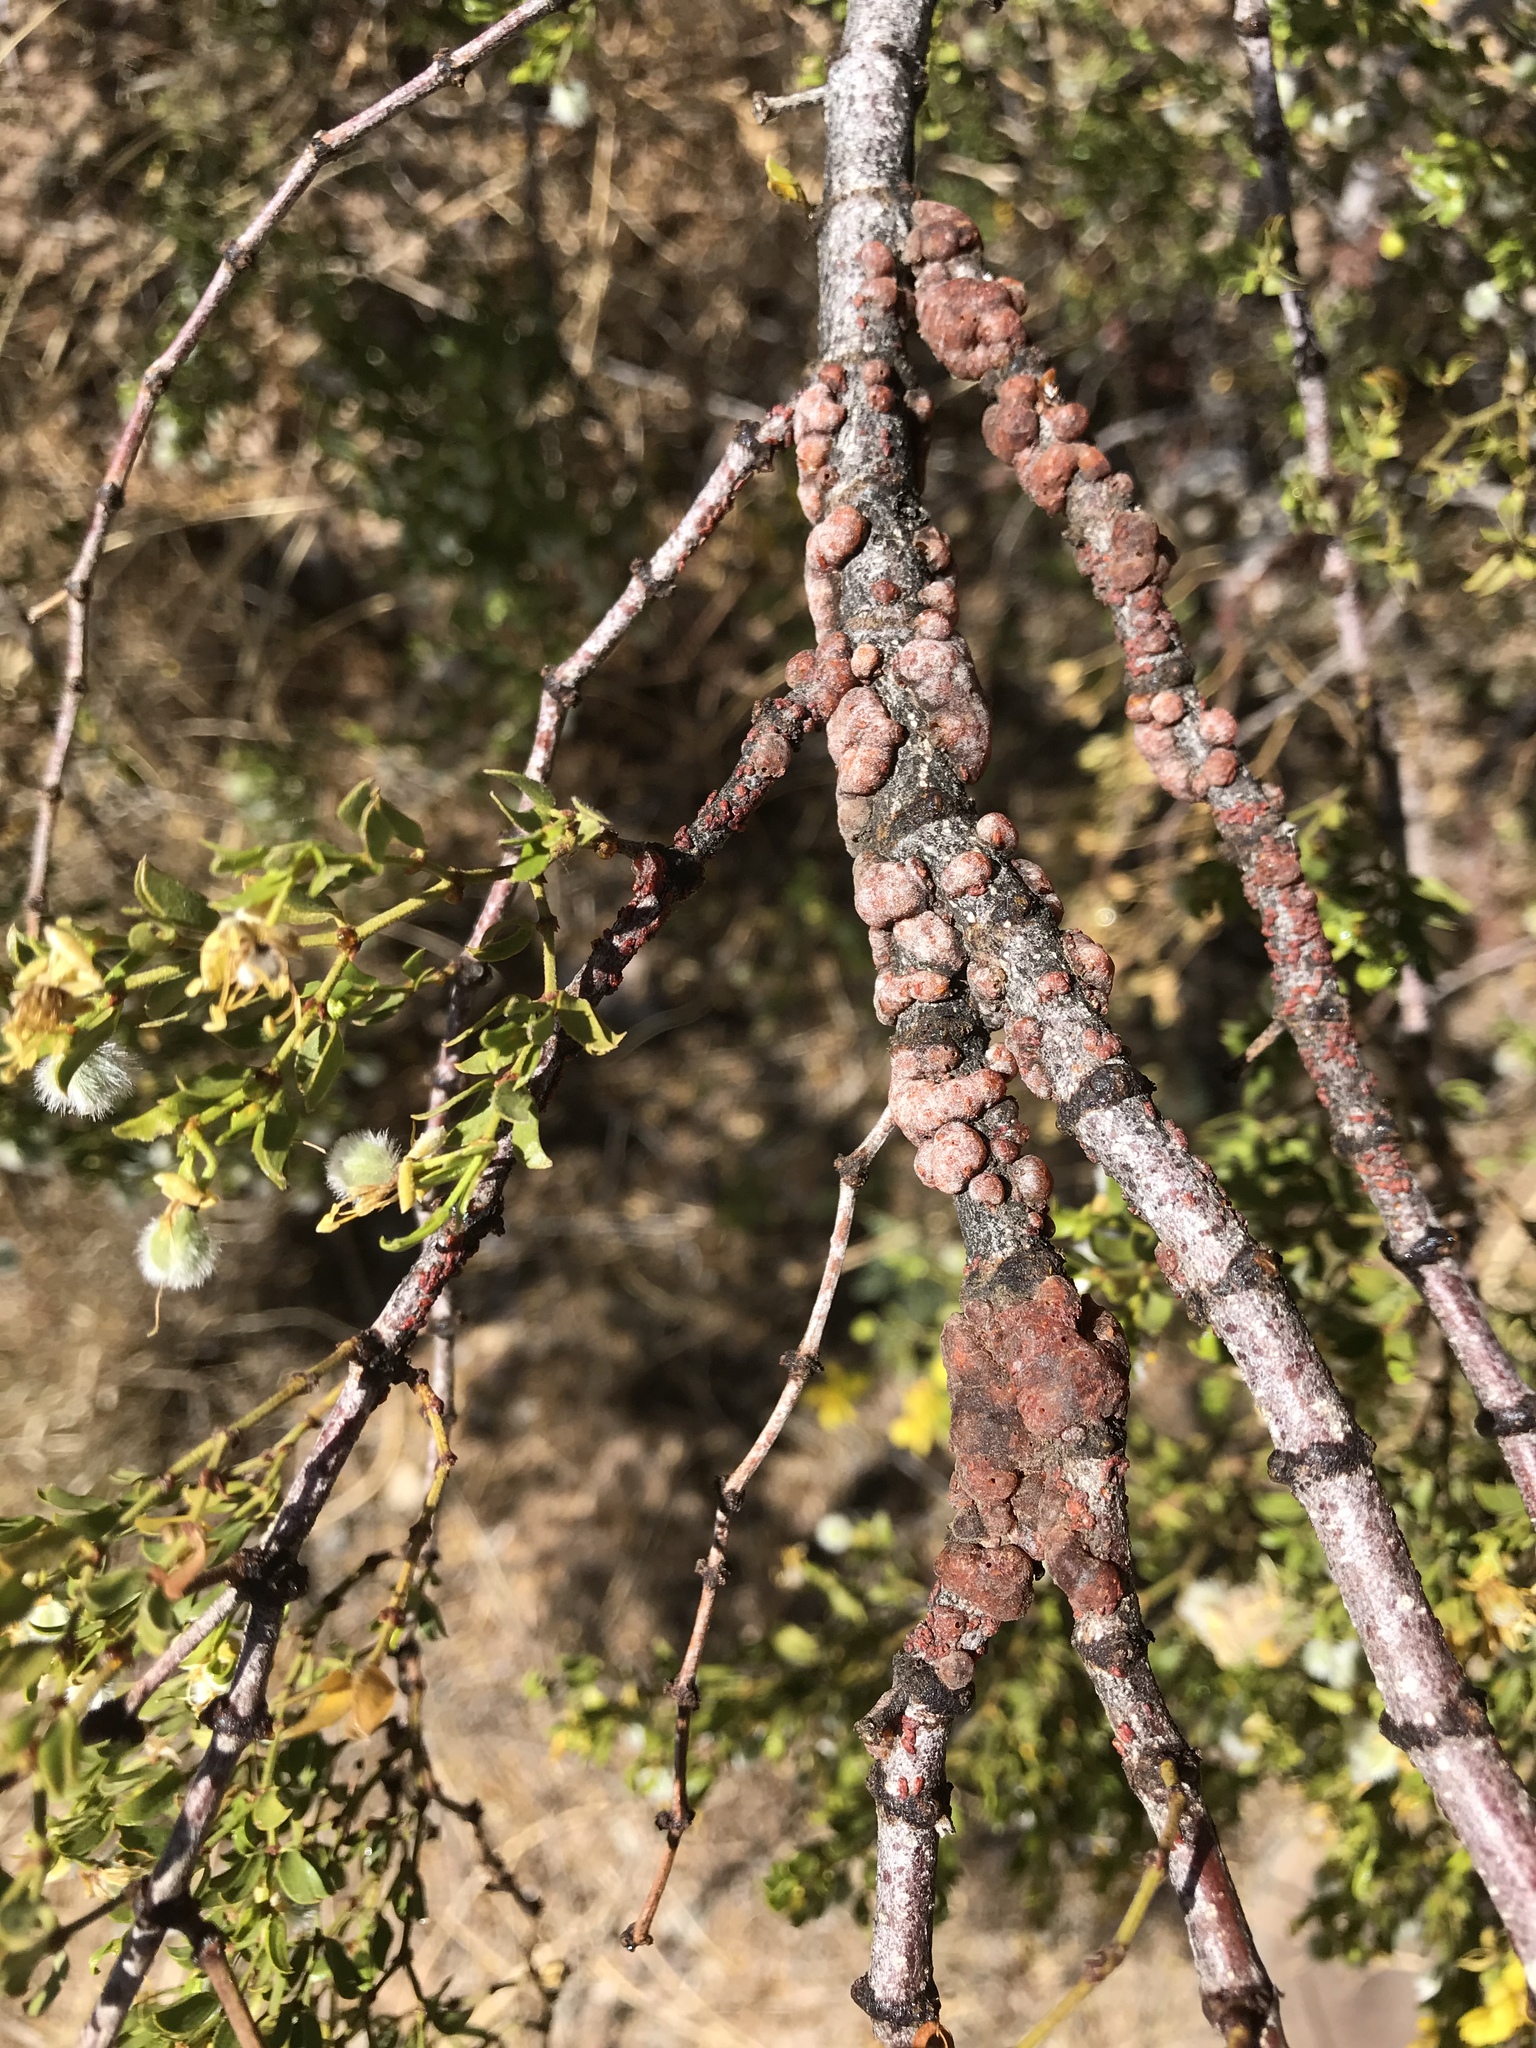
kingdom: Animalia
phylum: Arthropoda
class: Insecta
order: Hemiptera
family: Kerriidae
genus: Tachardiella
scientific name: Tachardiella larreae
